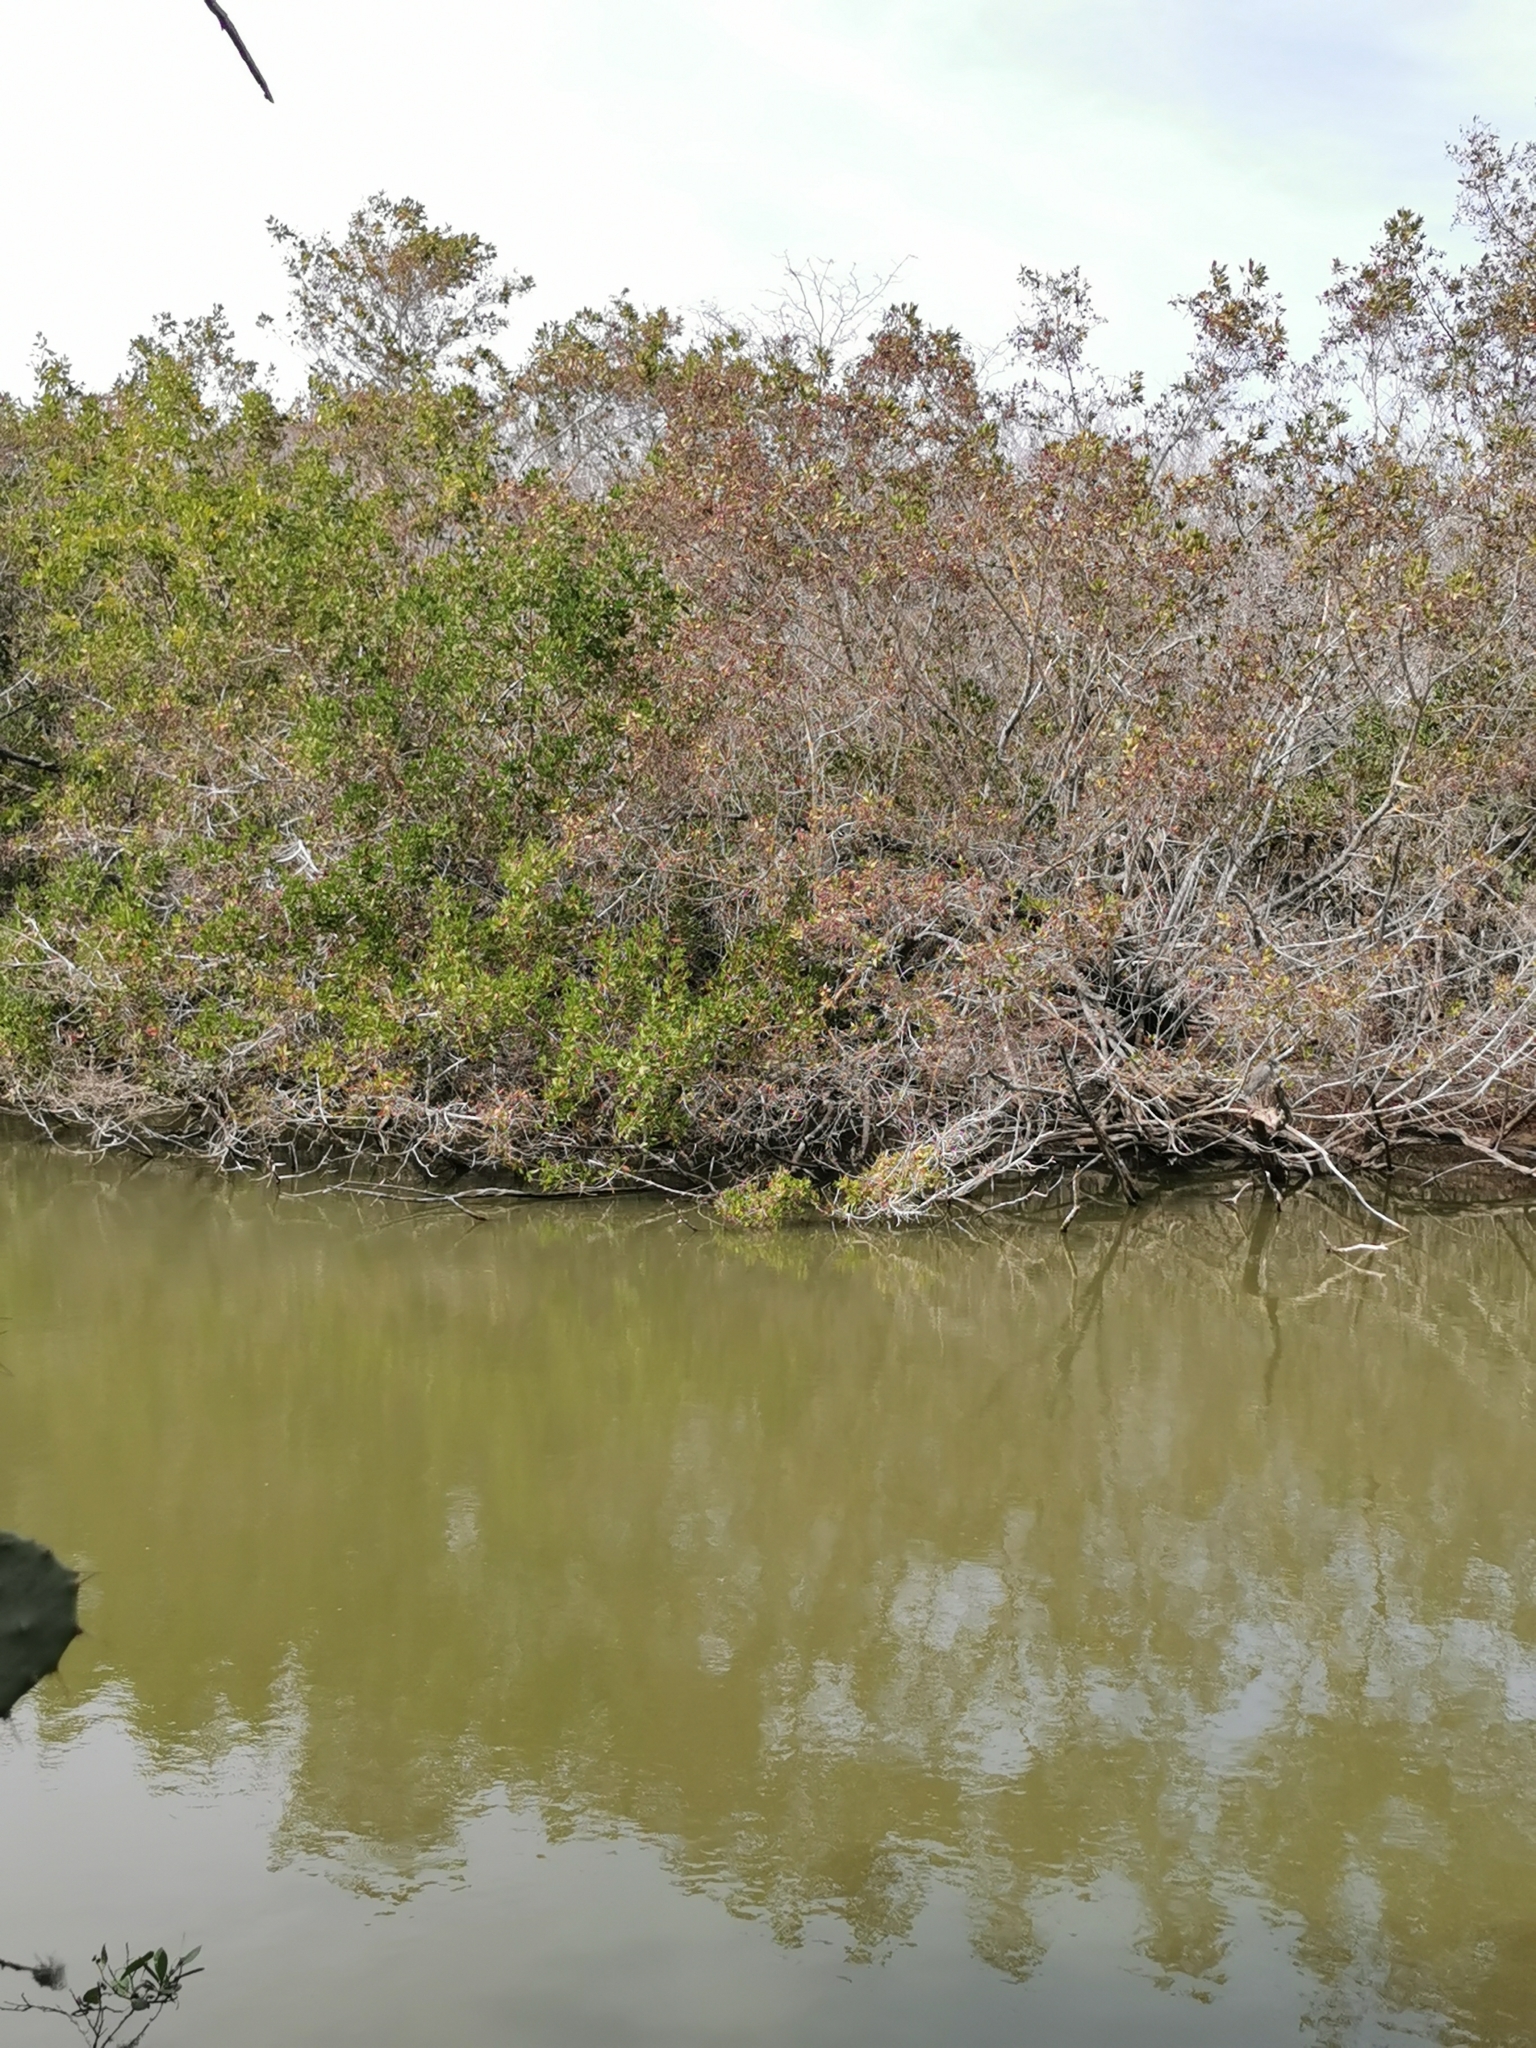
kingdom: Plantae
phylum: Tracheophyta
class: Magnoliopsida
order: Myrtales
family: Combretaceae
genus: Laguncularia
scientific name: Laguncularia racemosa
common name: White mangrove
